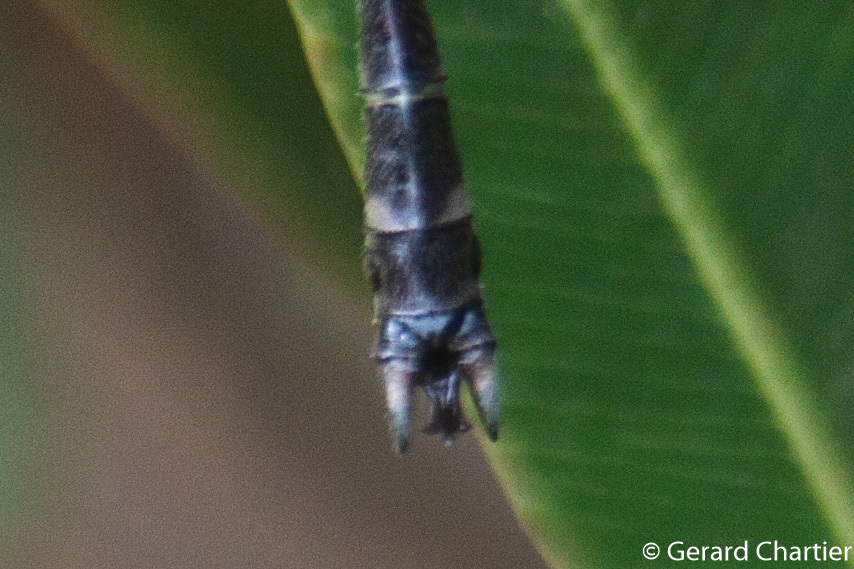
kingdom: Animalia
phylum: Arthropoda
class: Insecta
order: Odonata
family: Gomphidae
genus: Microgomphus
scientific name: Microgomphus chelifer
